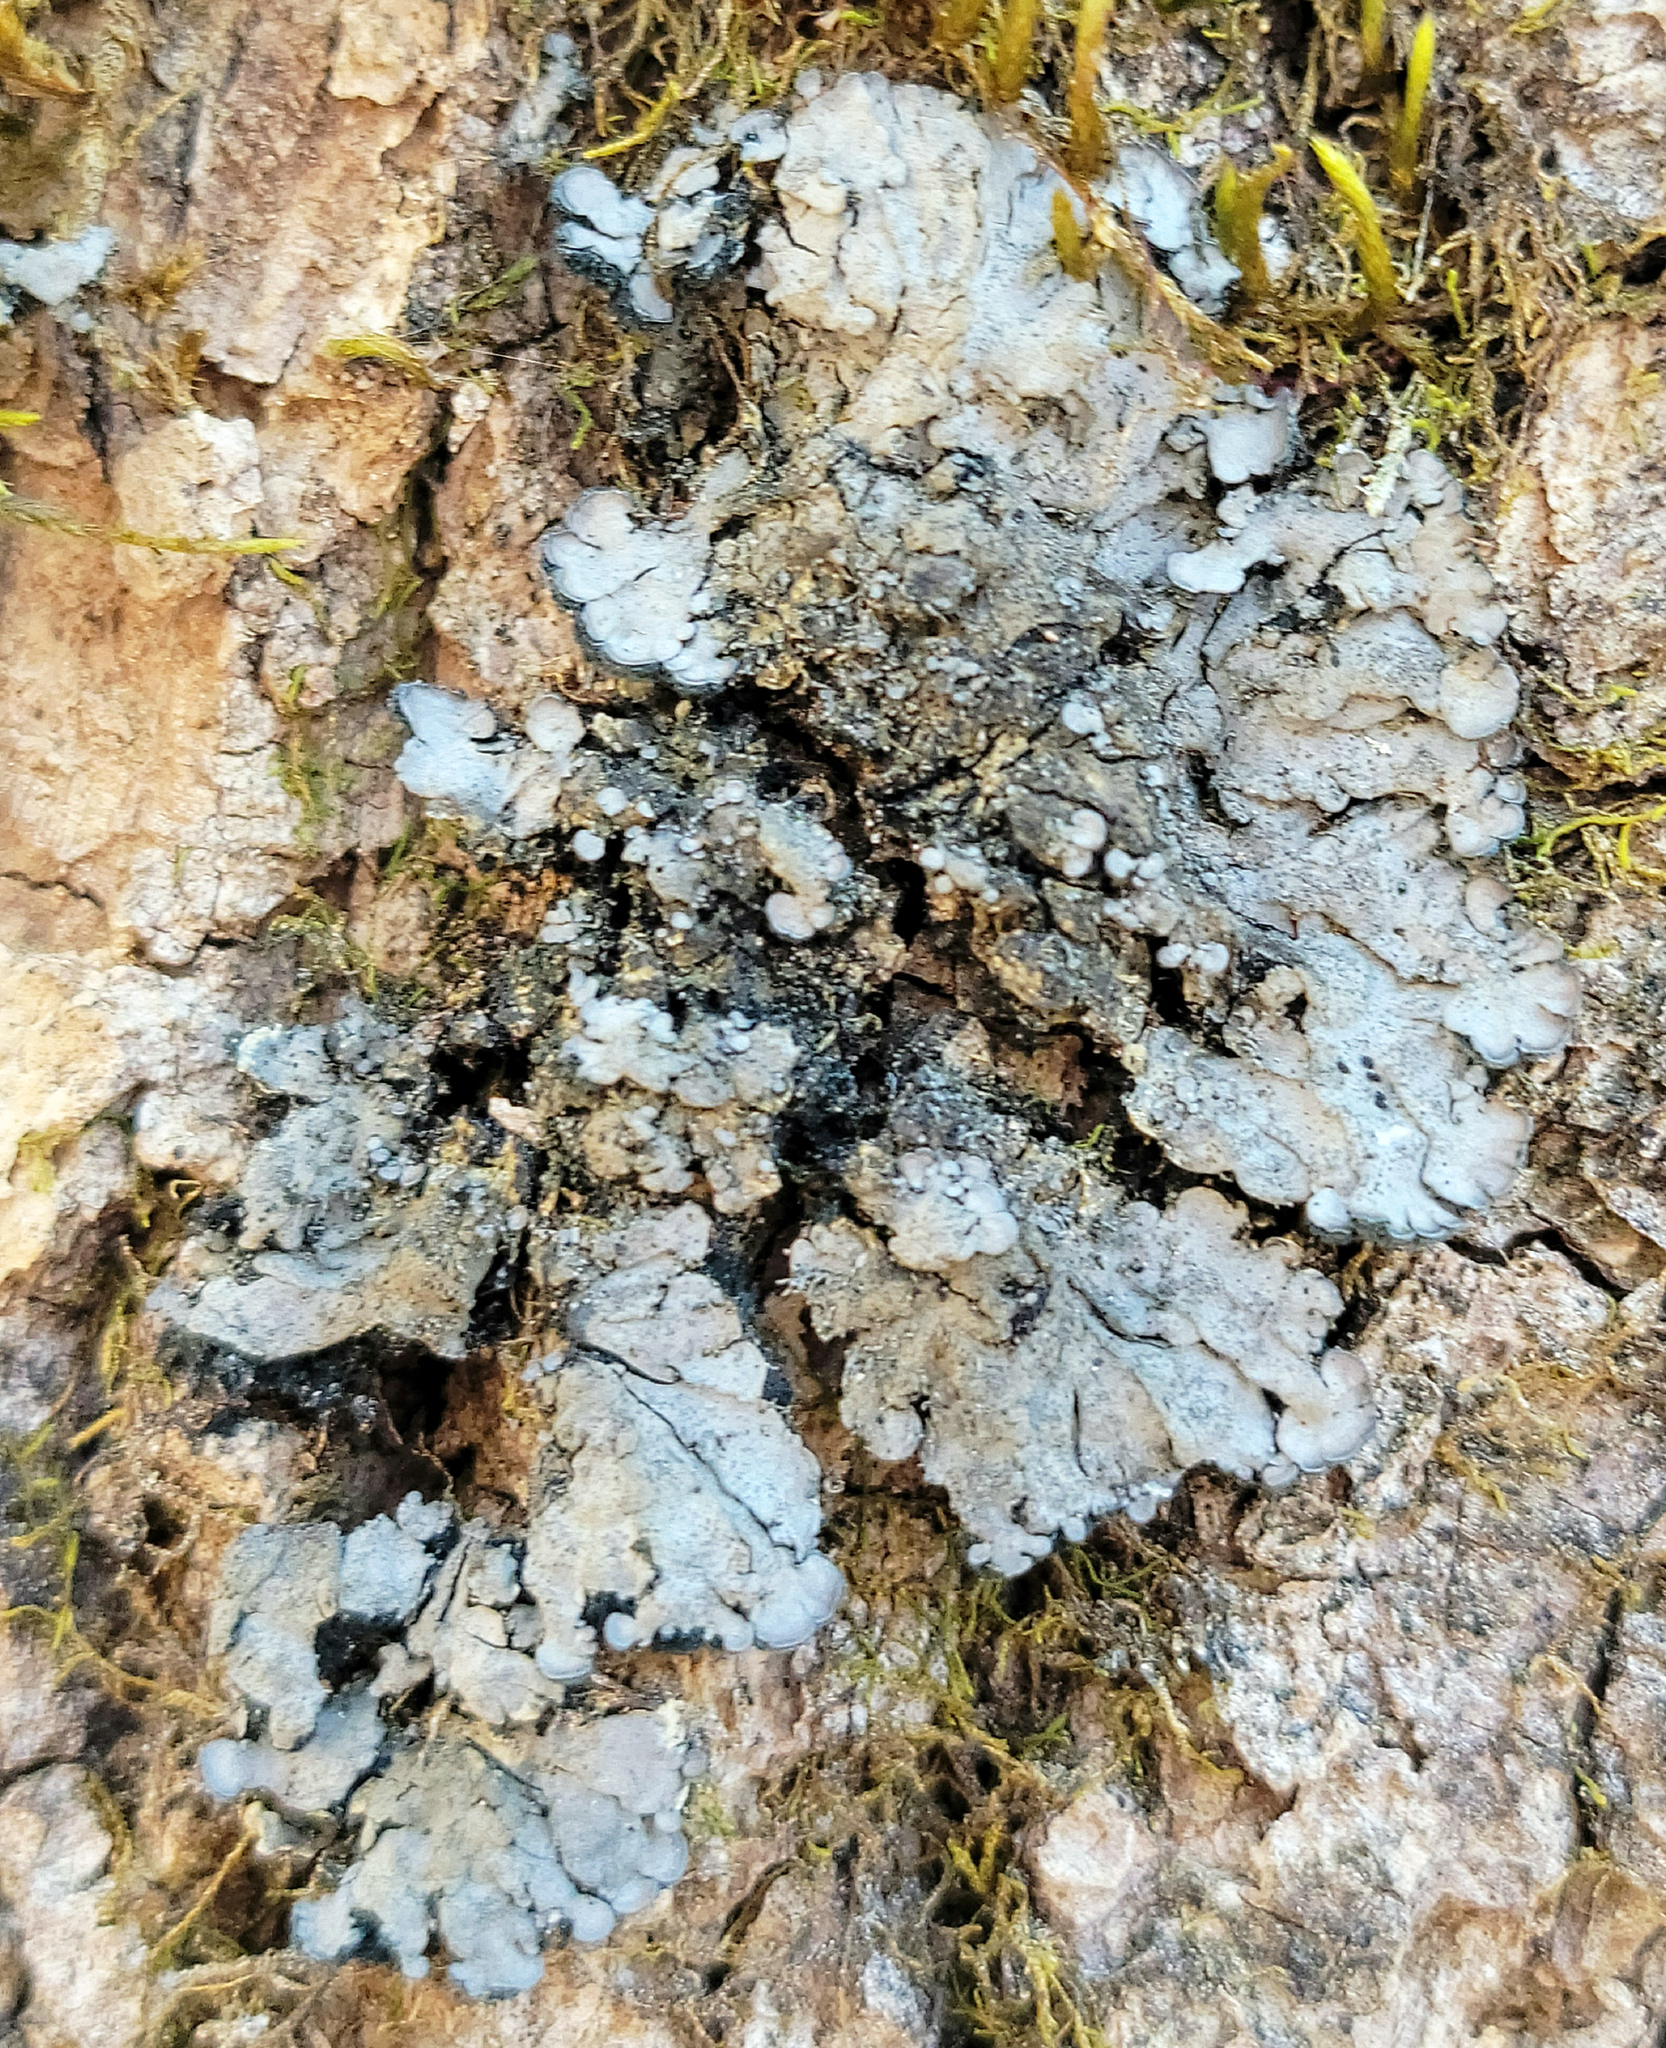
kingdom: Fungi
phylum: Ascomycota
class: Lecanoromycetes
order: Peltigerales
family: Coccocarpiaceae
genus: Coccocarpia
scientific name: Coccocarpia palmicola
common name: Salted shell lichen
